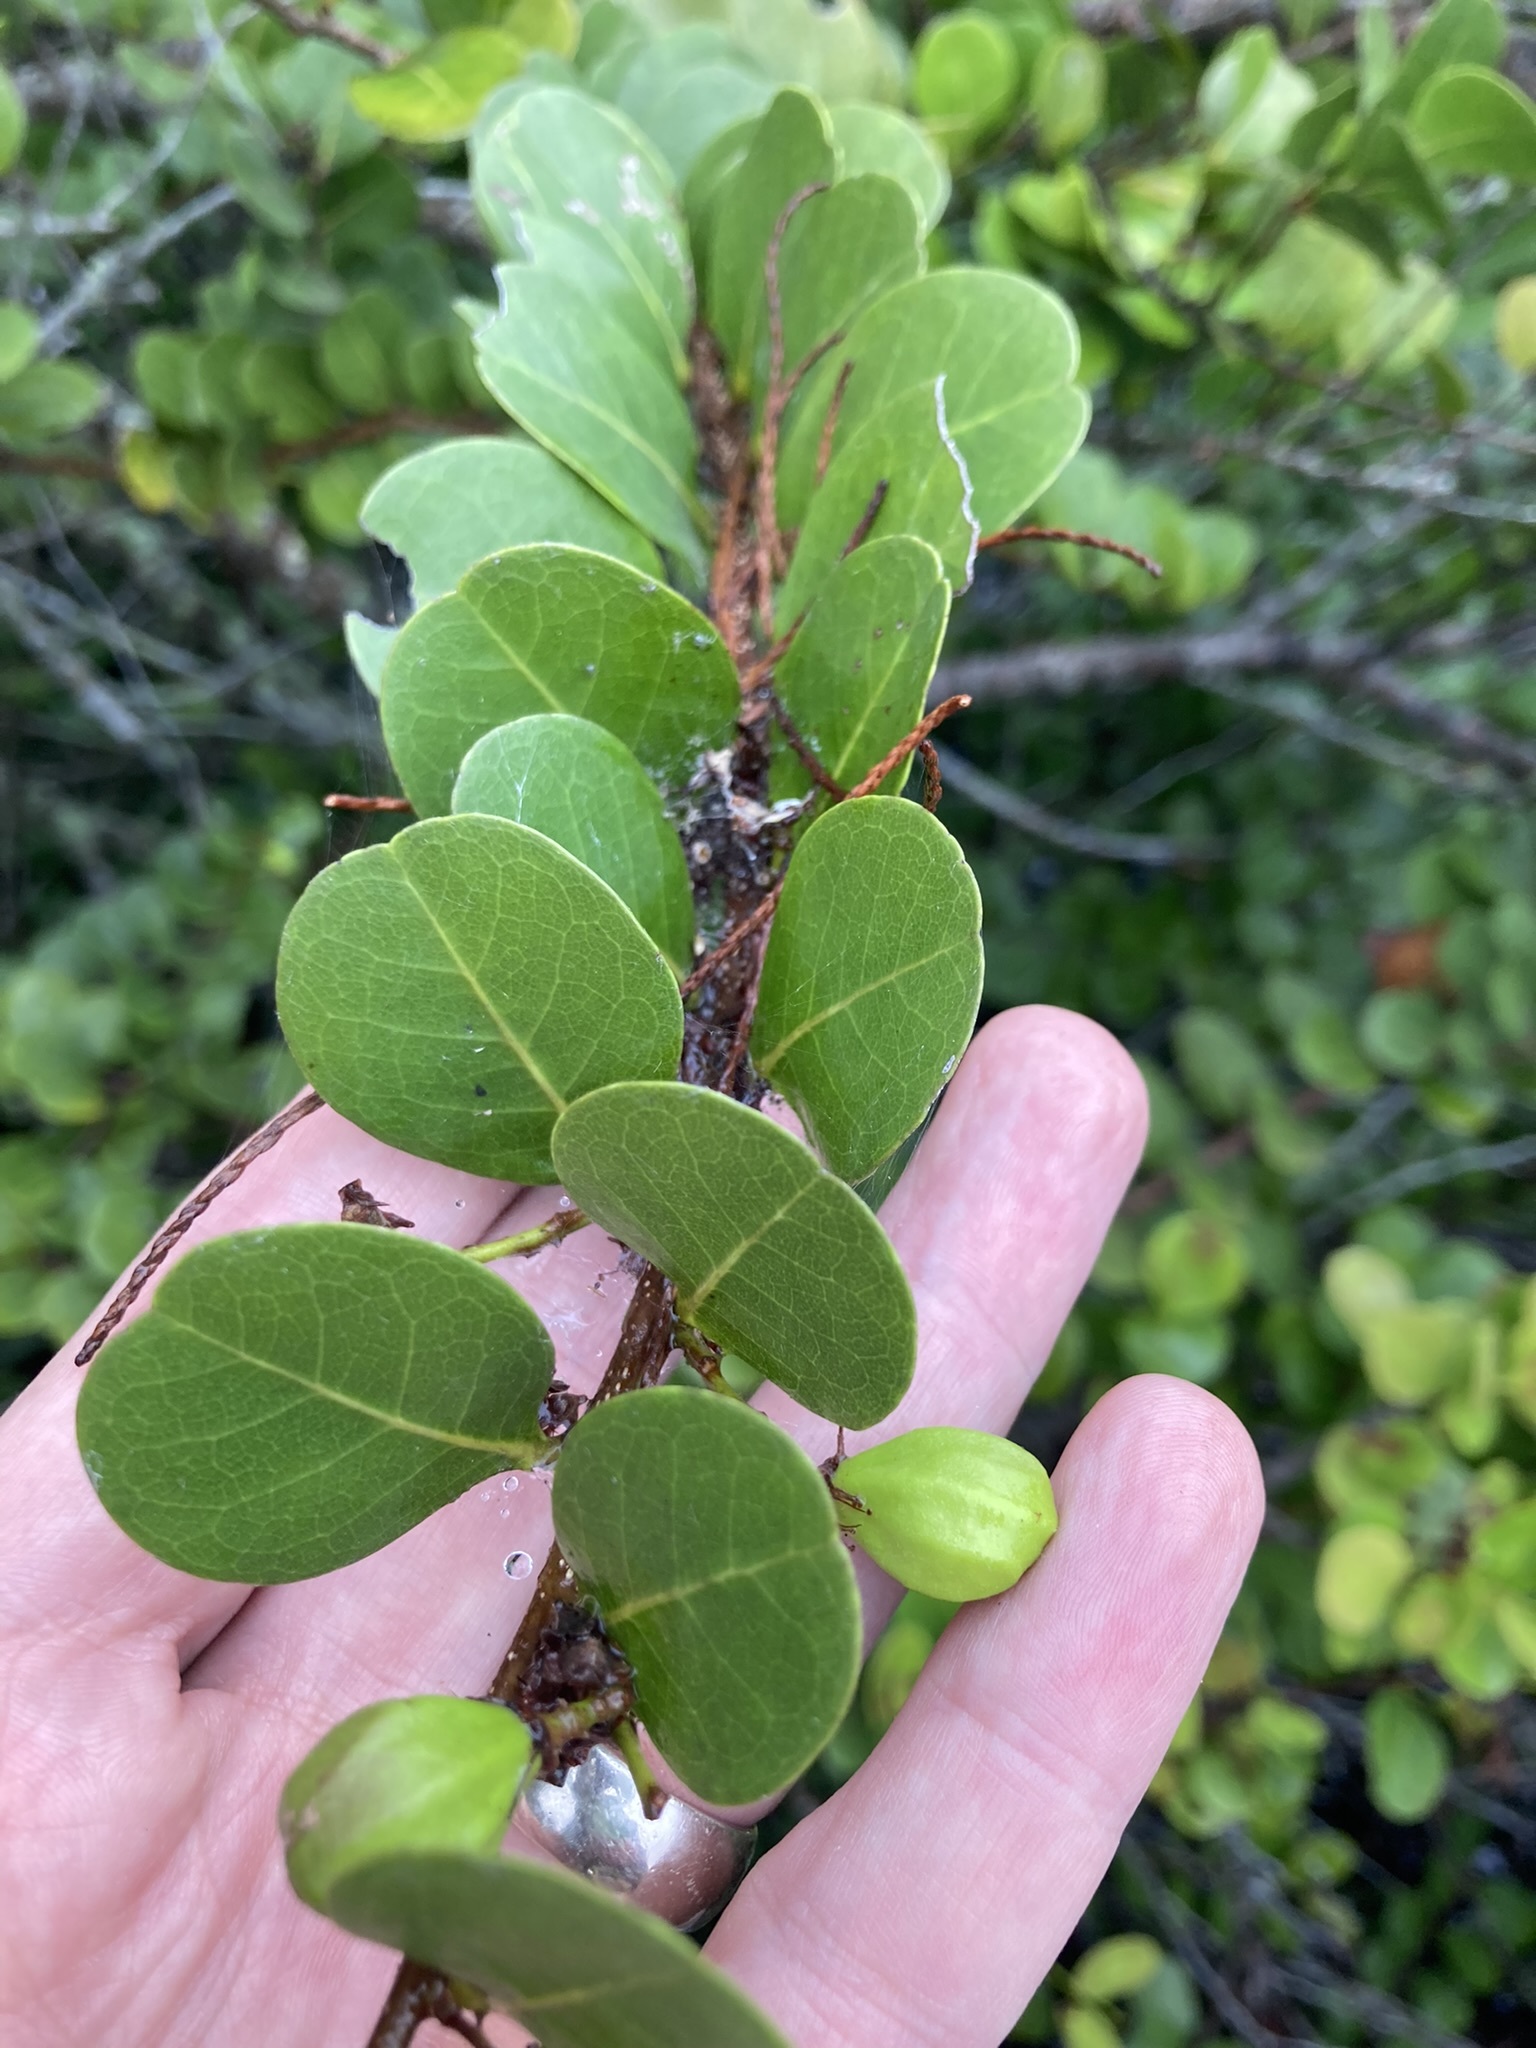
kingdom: Plantae
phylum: Tracheophyta
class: Magnoliopsida
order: Malpighiales
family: Chrysobalanaceae
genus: Chrysobalanus
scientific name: Chrysobalanus icaco
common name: Coco plum
